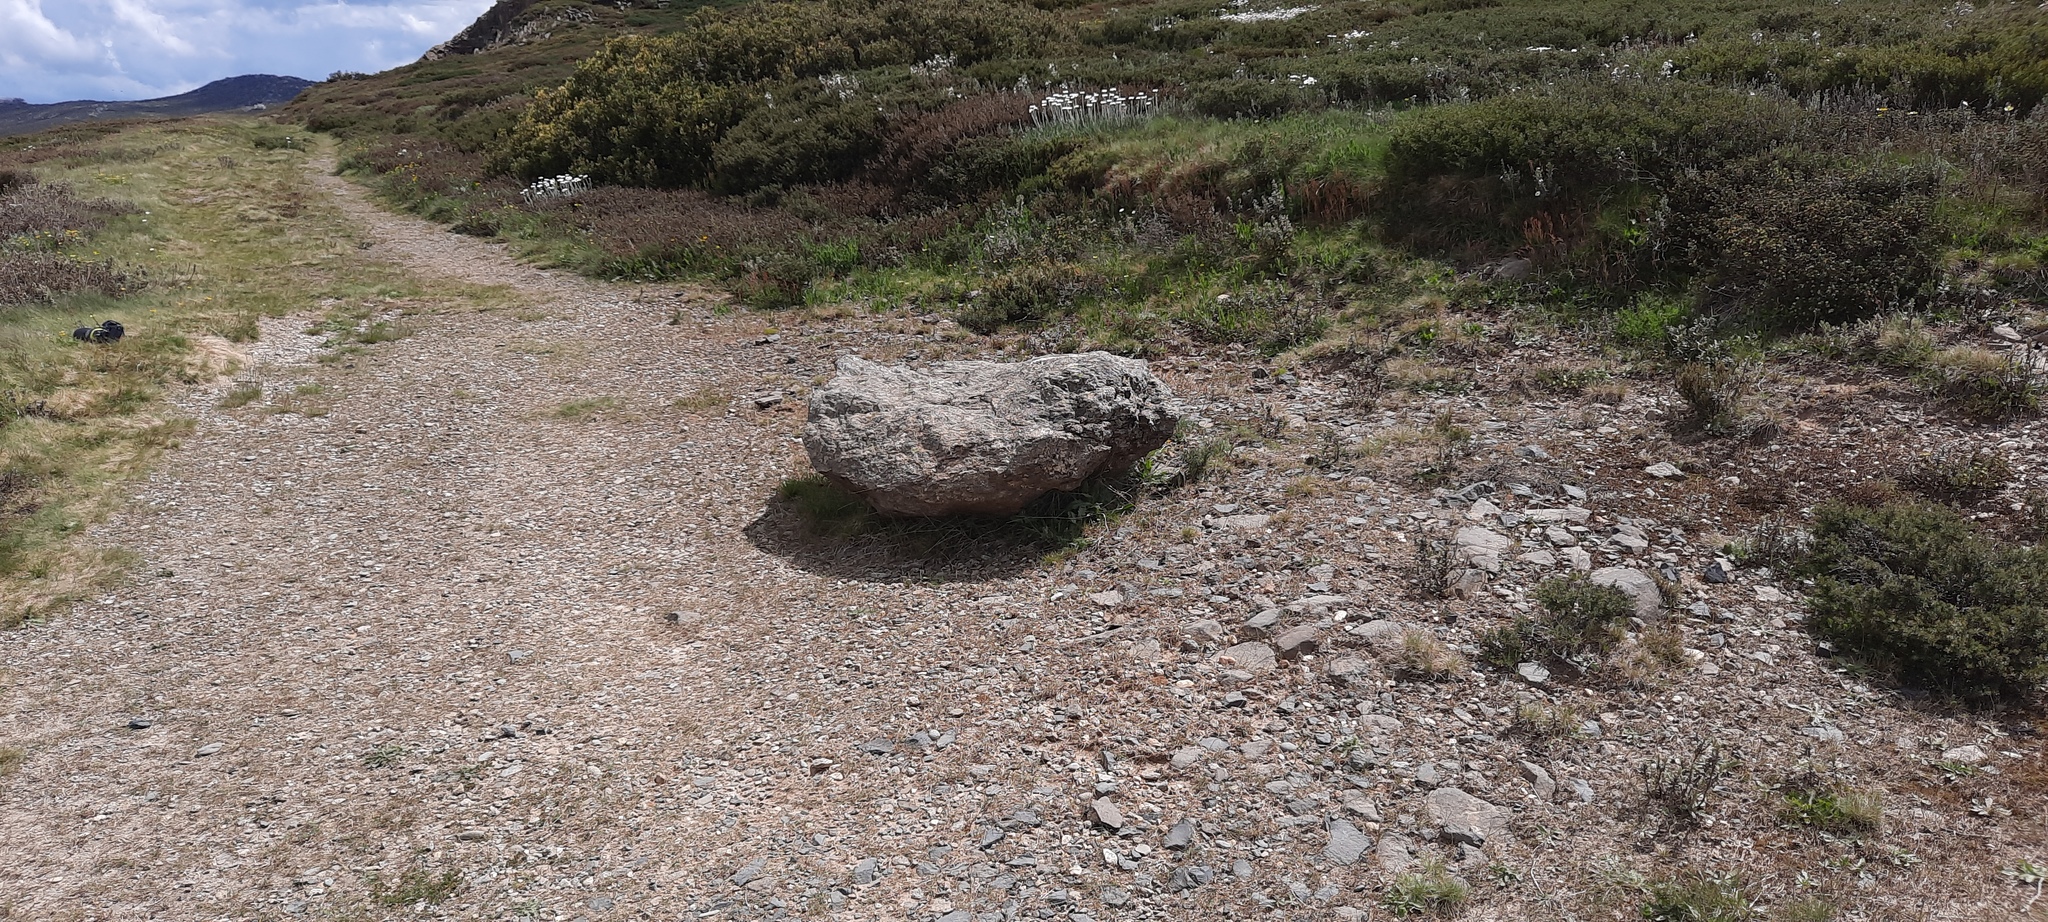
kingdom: Animalia
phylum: Arthropoda
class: Insecta
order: Diptera
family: Therevidae
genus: Laxotela
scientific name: Laxotela gaimarii
